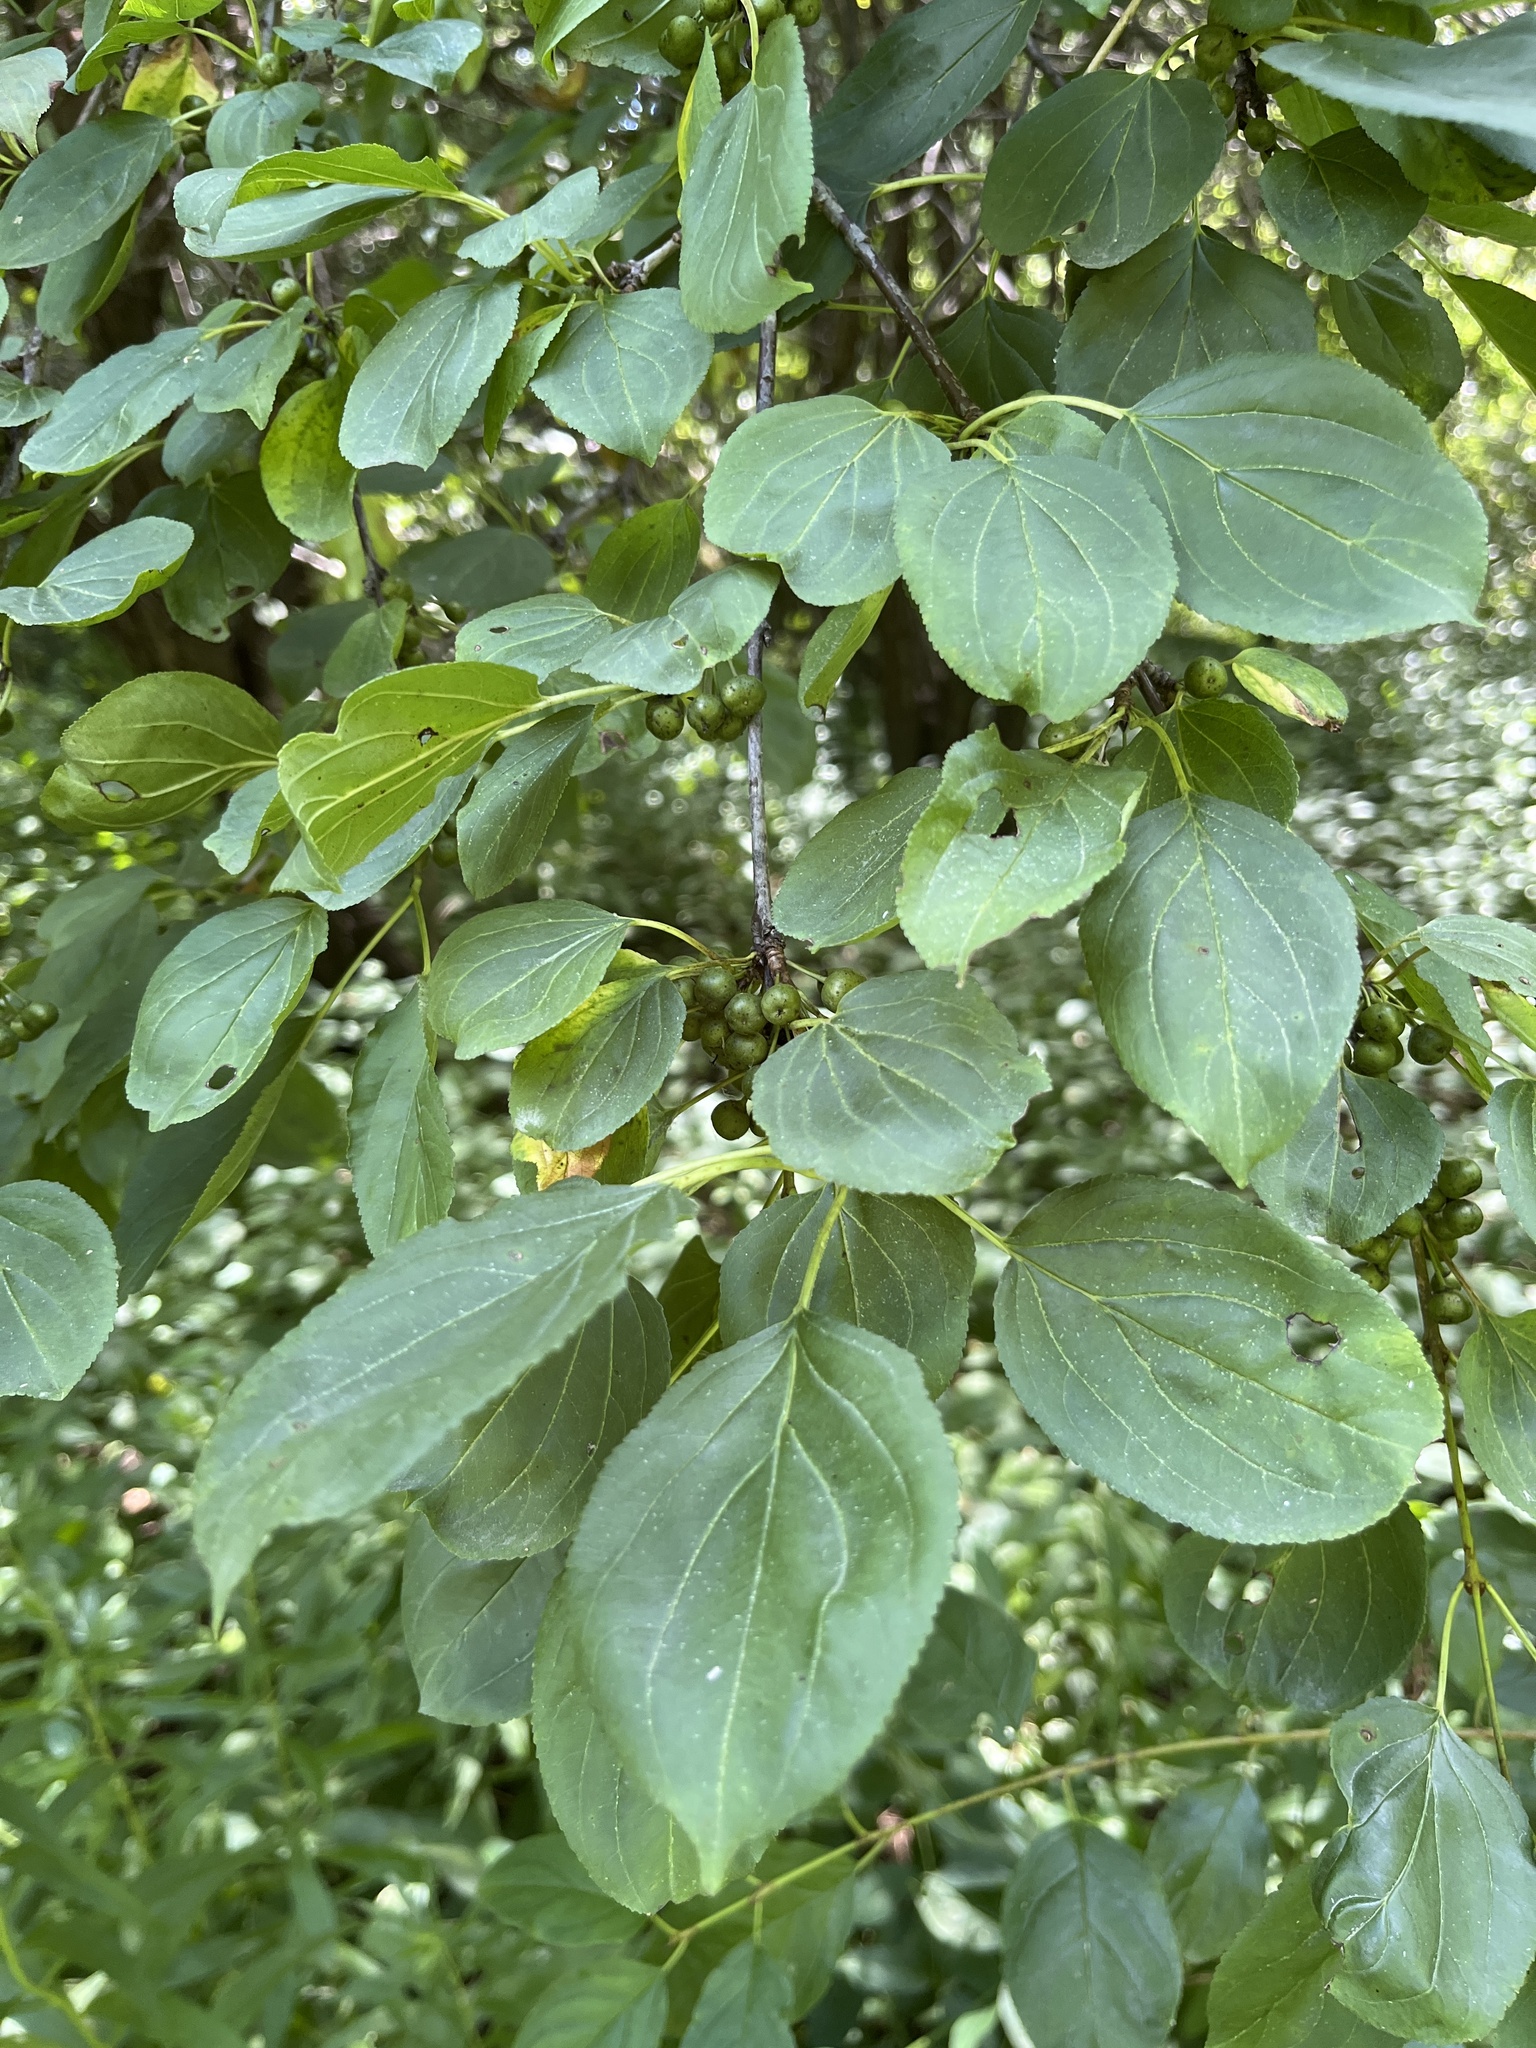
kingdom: Plantae
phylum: Tracheophyta
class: Magnoliopsida
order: Rosales
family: Rhamnaceae
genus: Rhamnus
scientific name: Rhamnus cathartica
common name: Common buckthorn
